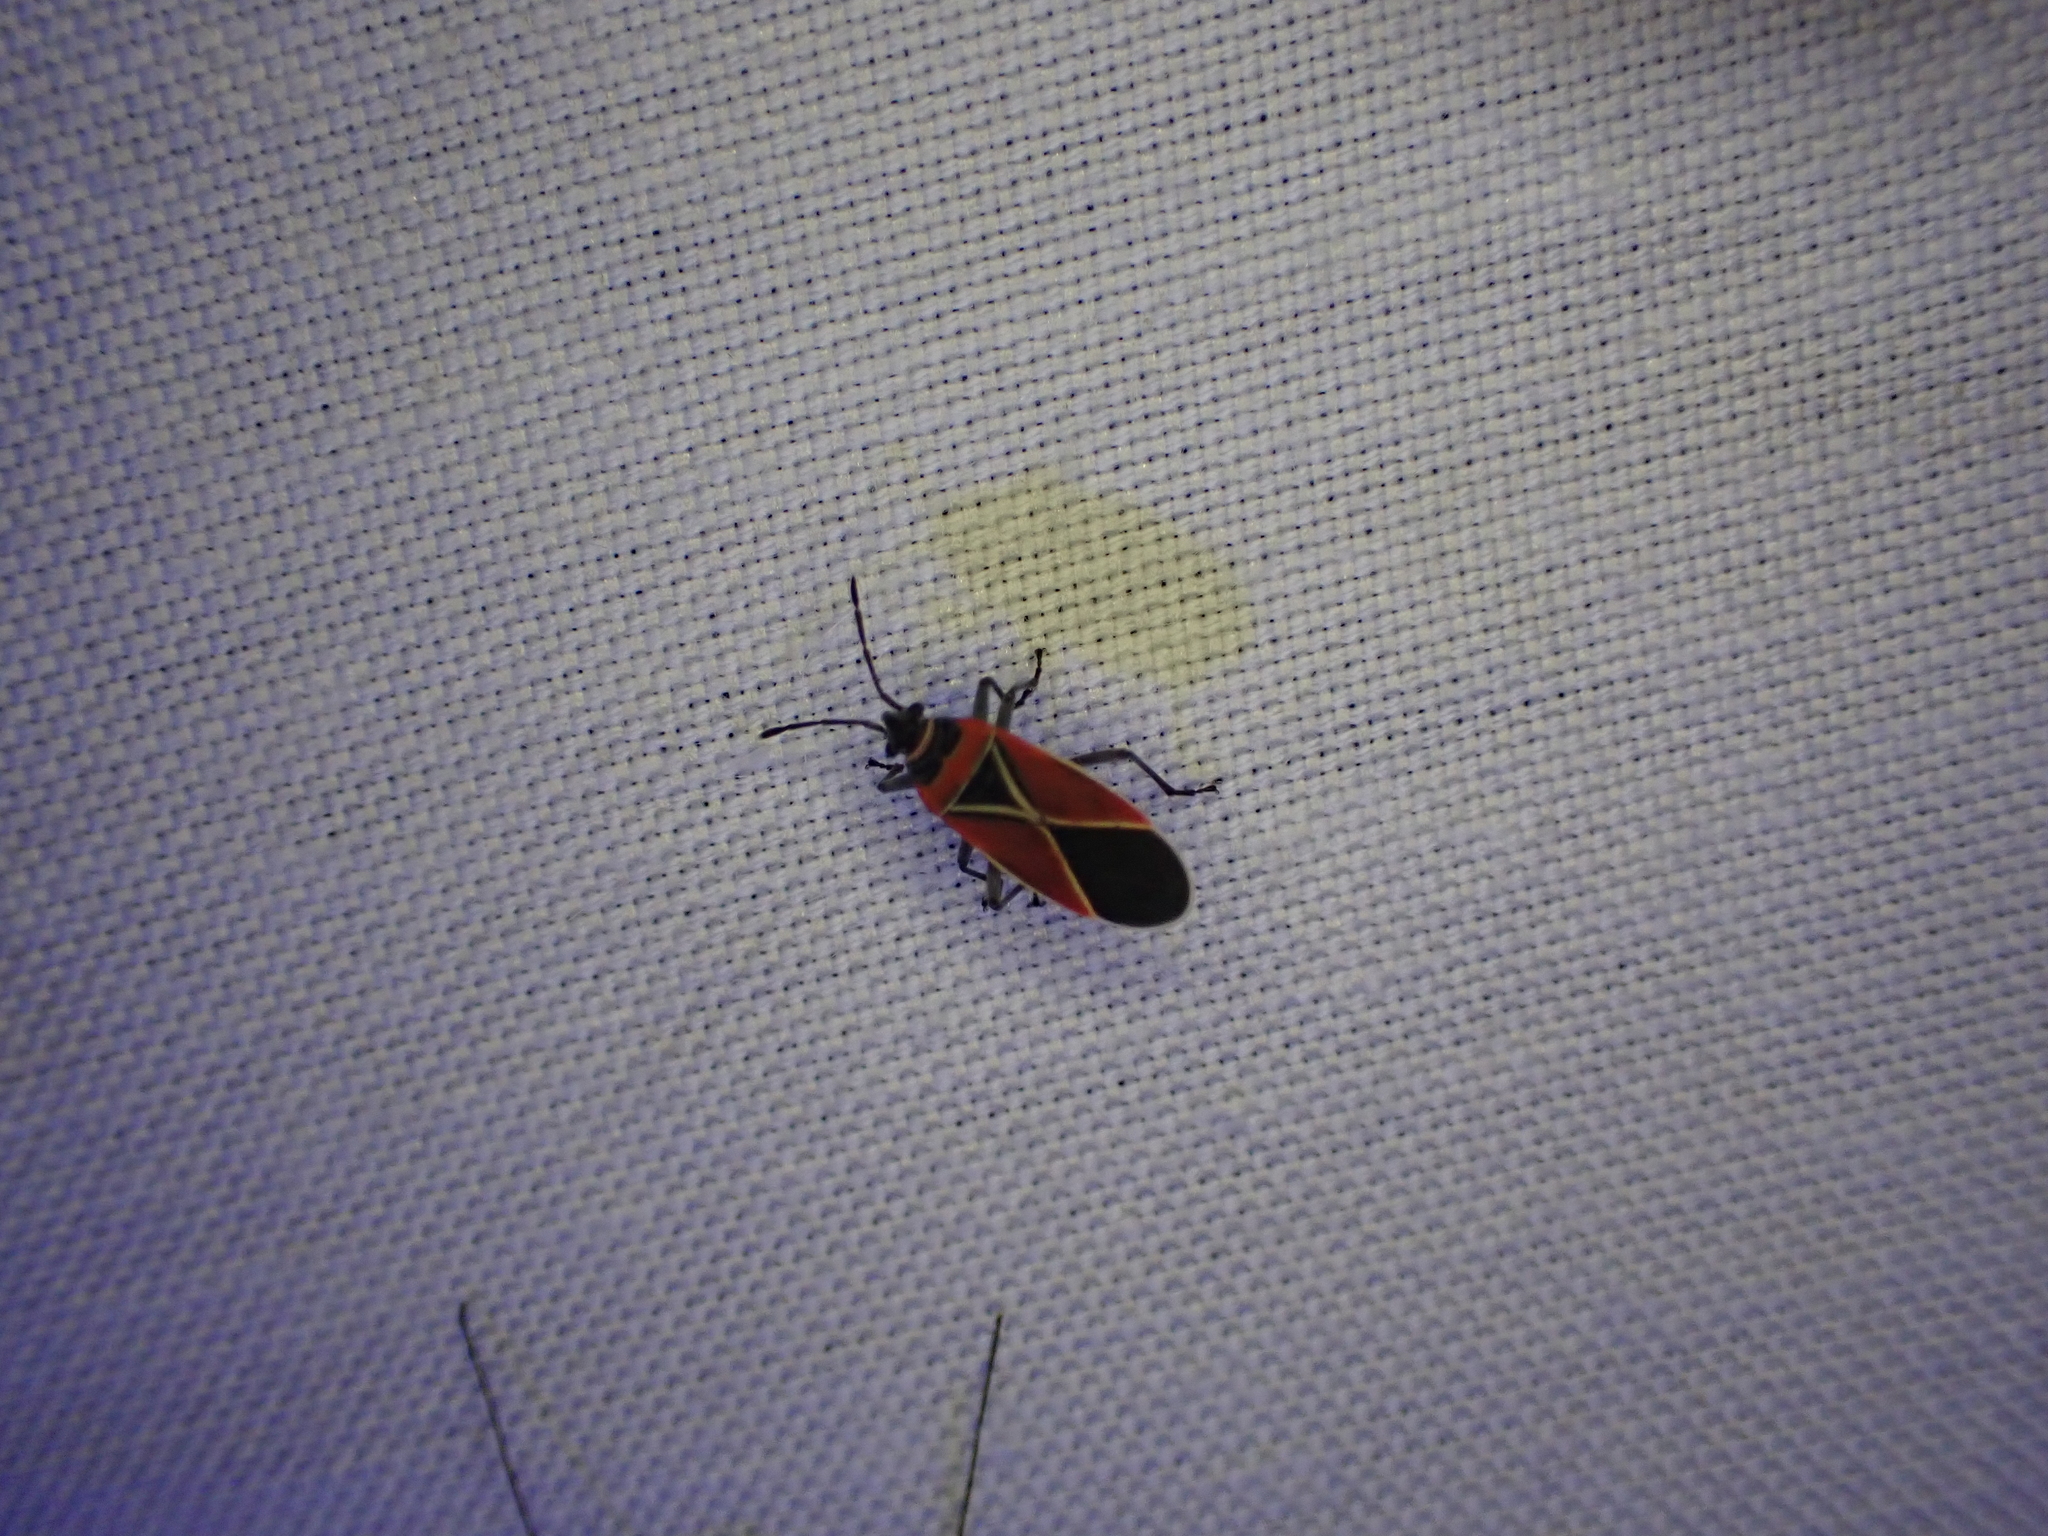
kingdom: Animalia
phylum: Arthropoda
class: Insecta
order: Hemiptera
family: Lygaeidae
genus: Neacoryphus
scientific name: Neacoryphus bicrucis
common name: Lygaeid bug
